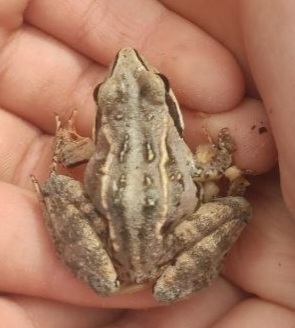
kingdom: Animalia
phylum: Chordata
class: Amphibia
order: Anura
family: Ranidae
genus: Rana
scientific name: Rana arvalis
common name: Moor frog
